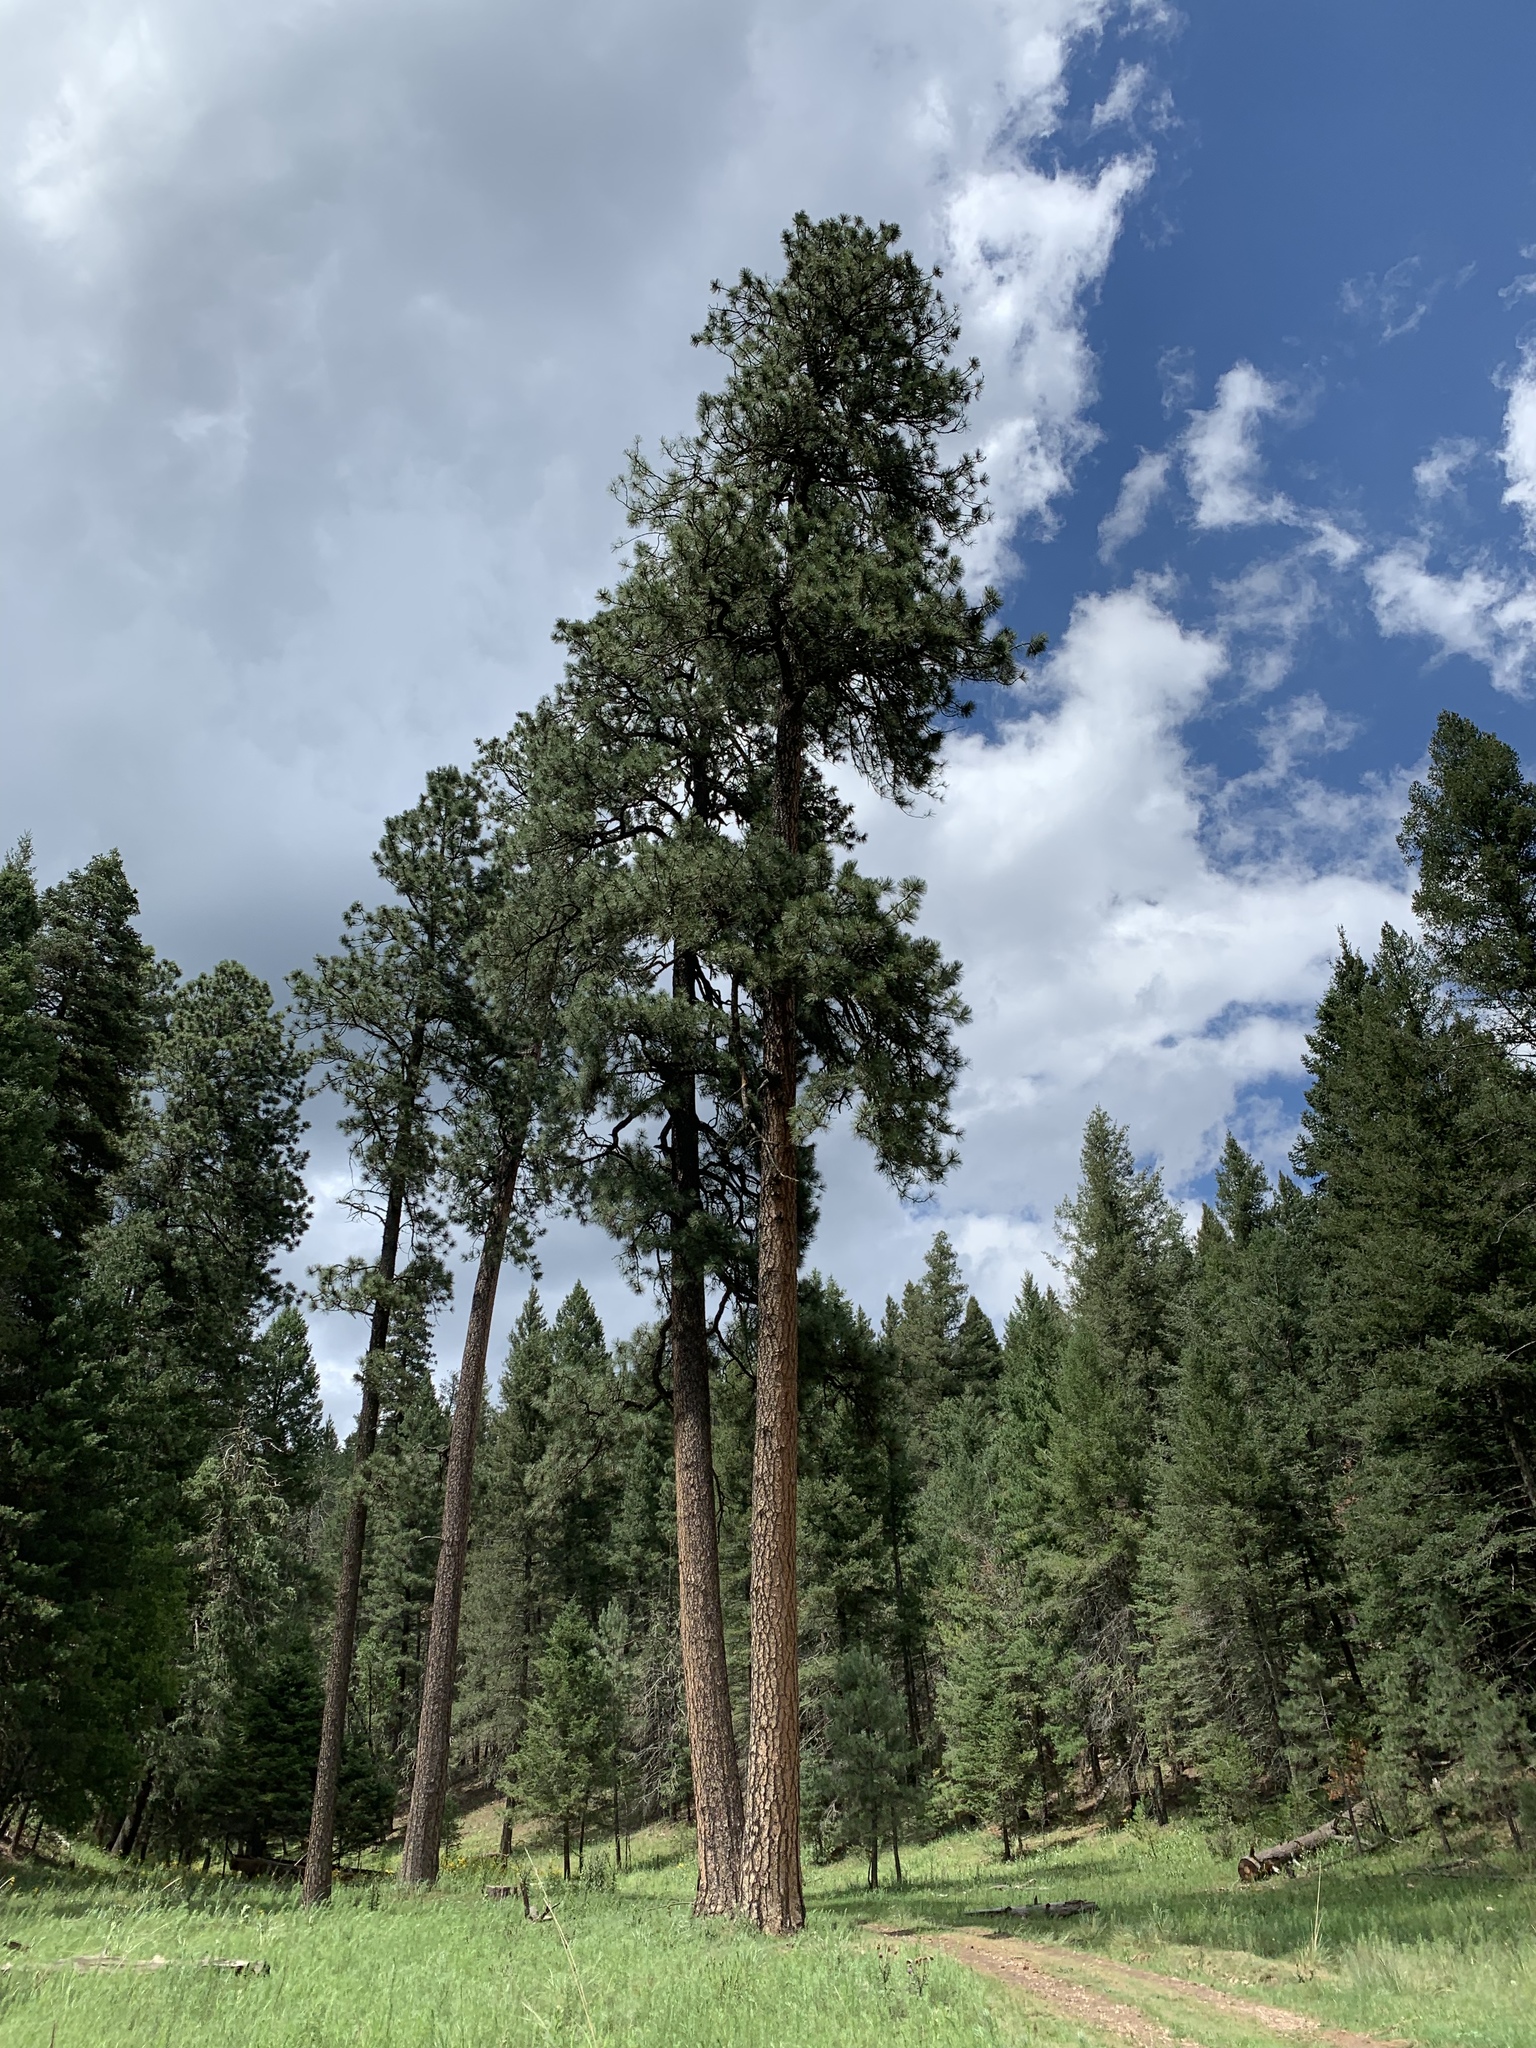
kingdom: Plantae
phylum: Tracheophyta
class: Pinopsida
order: Pinales
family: Pinaceae
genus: Pinus
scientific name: Pinus ponderosa
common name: Western yellow-pine
